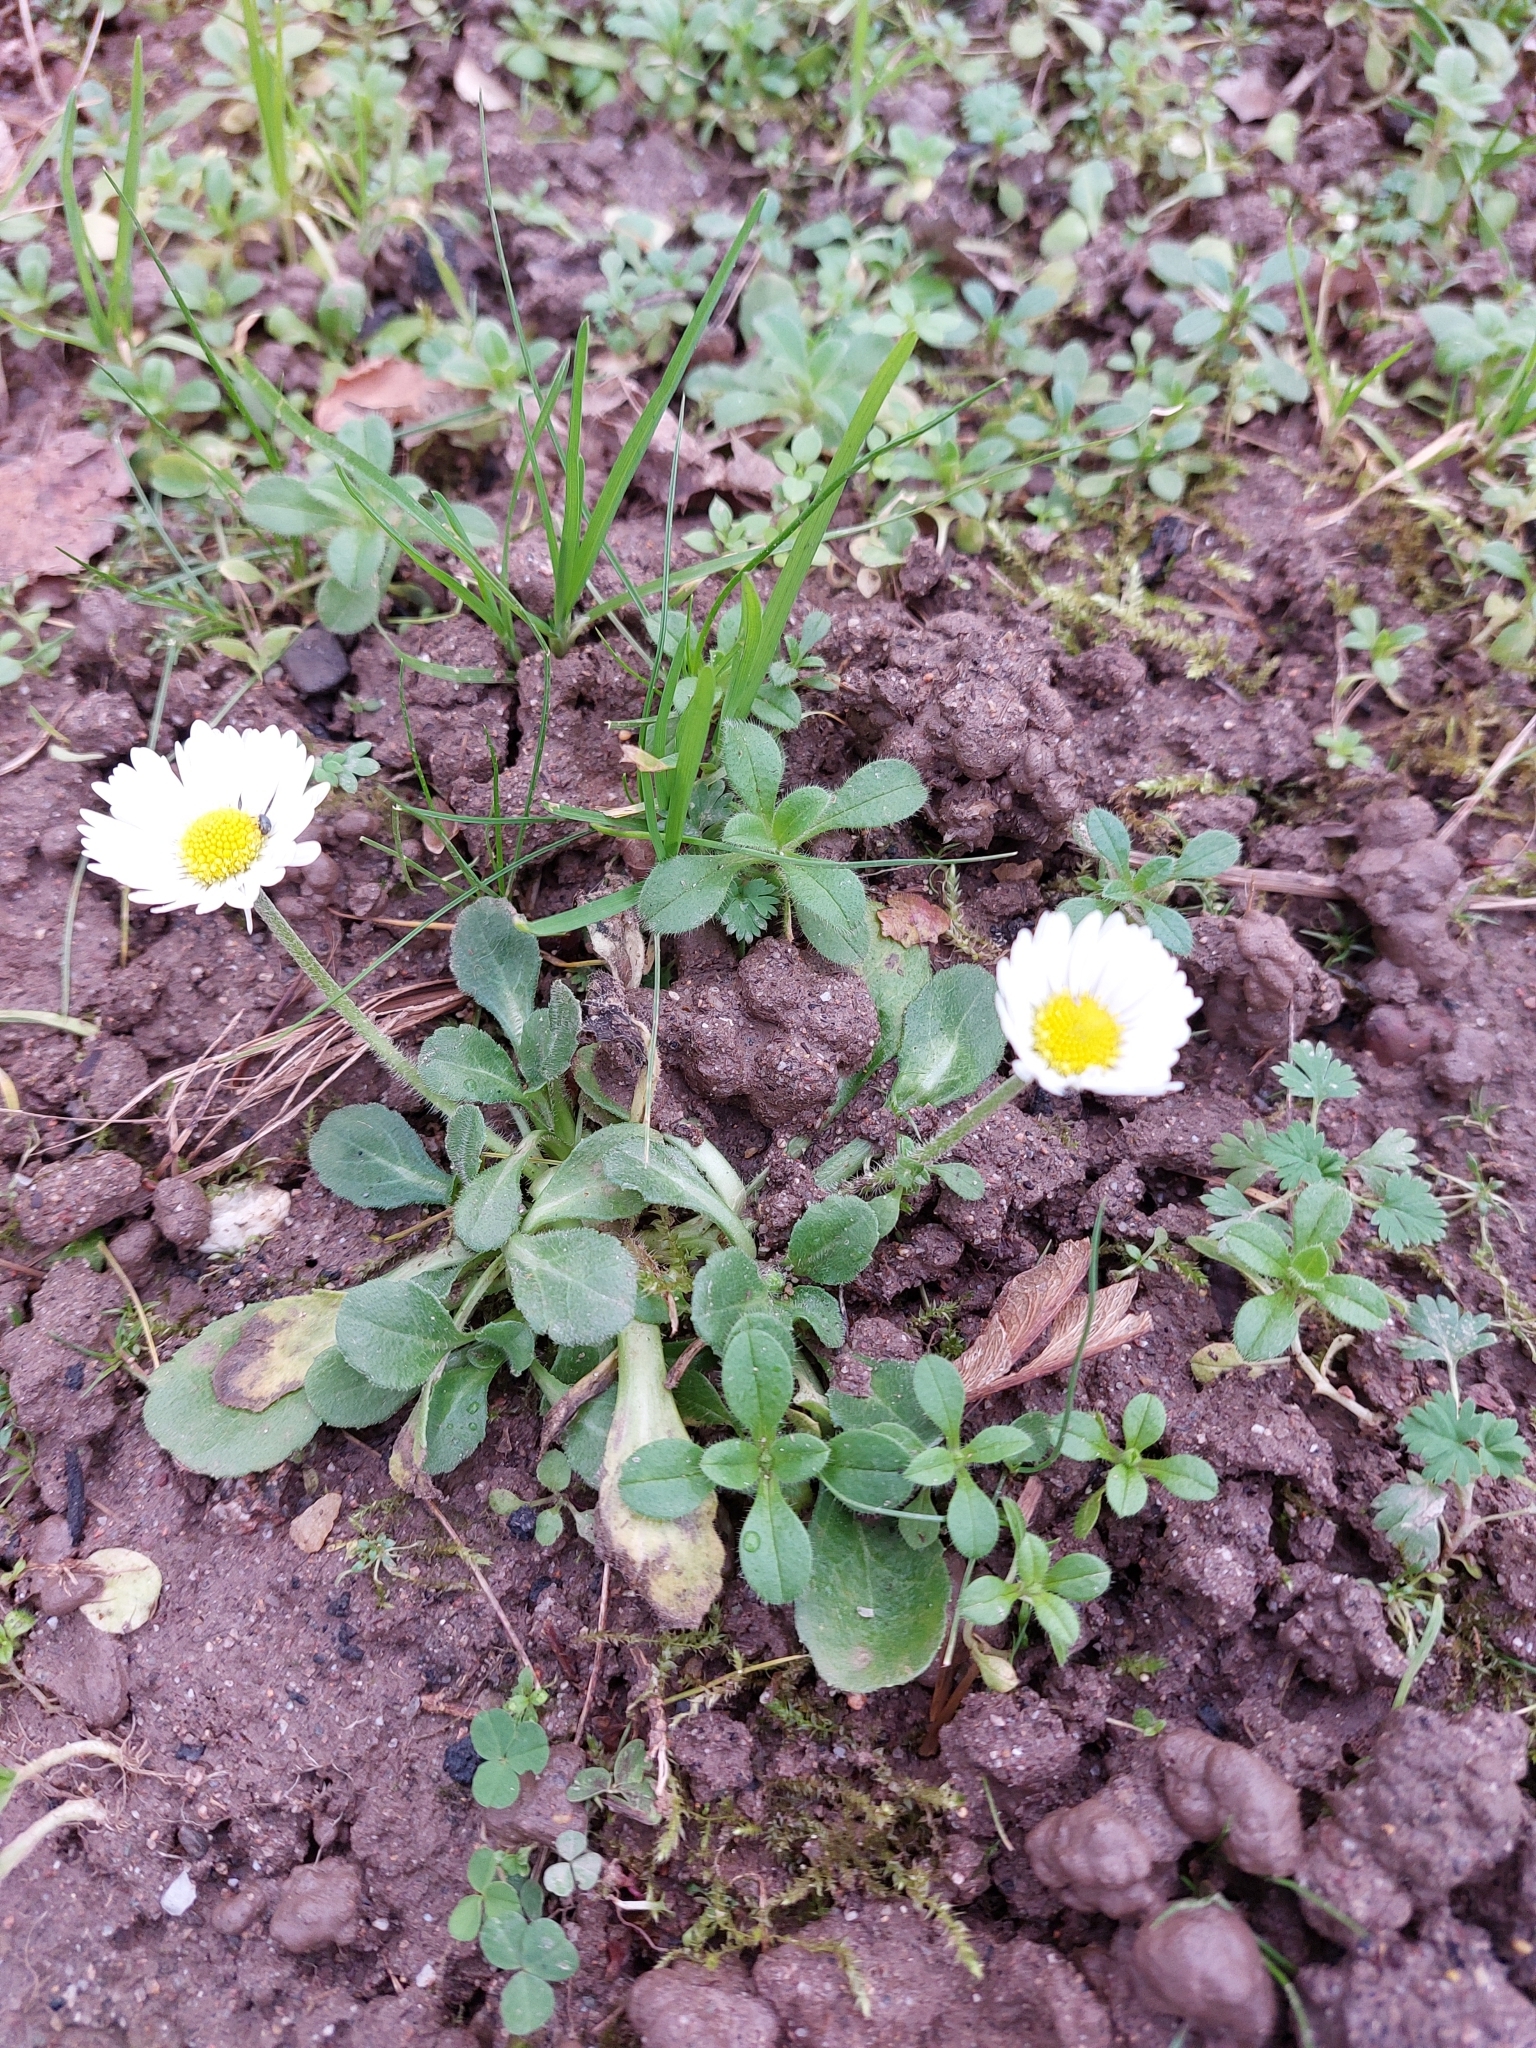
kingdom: Plantae
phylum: Tracheophyta
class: Magnoliopsida
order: Asterales
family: Asteraceae
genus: Bellis
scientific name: Bellis perennis
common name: Lawndaisy
